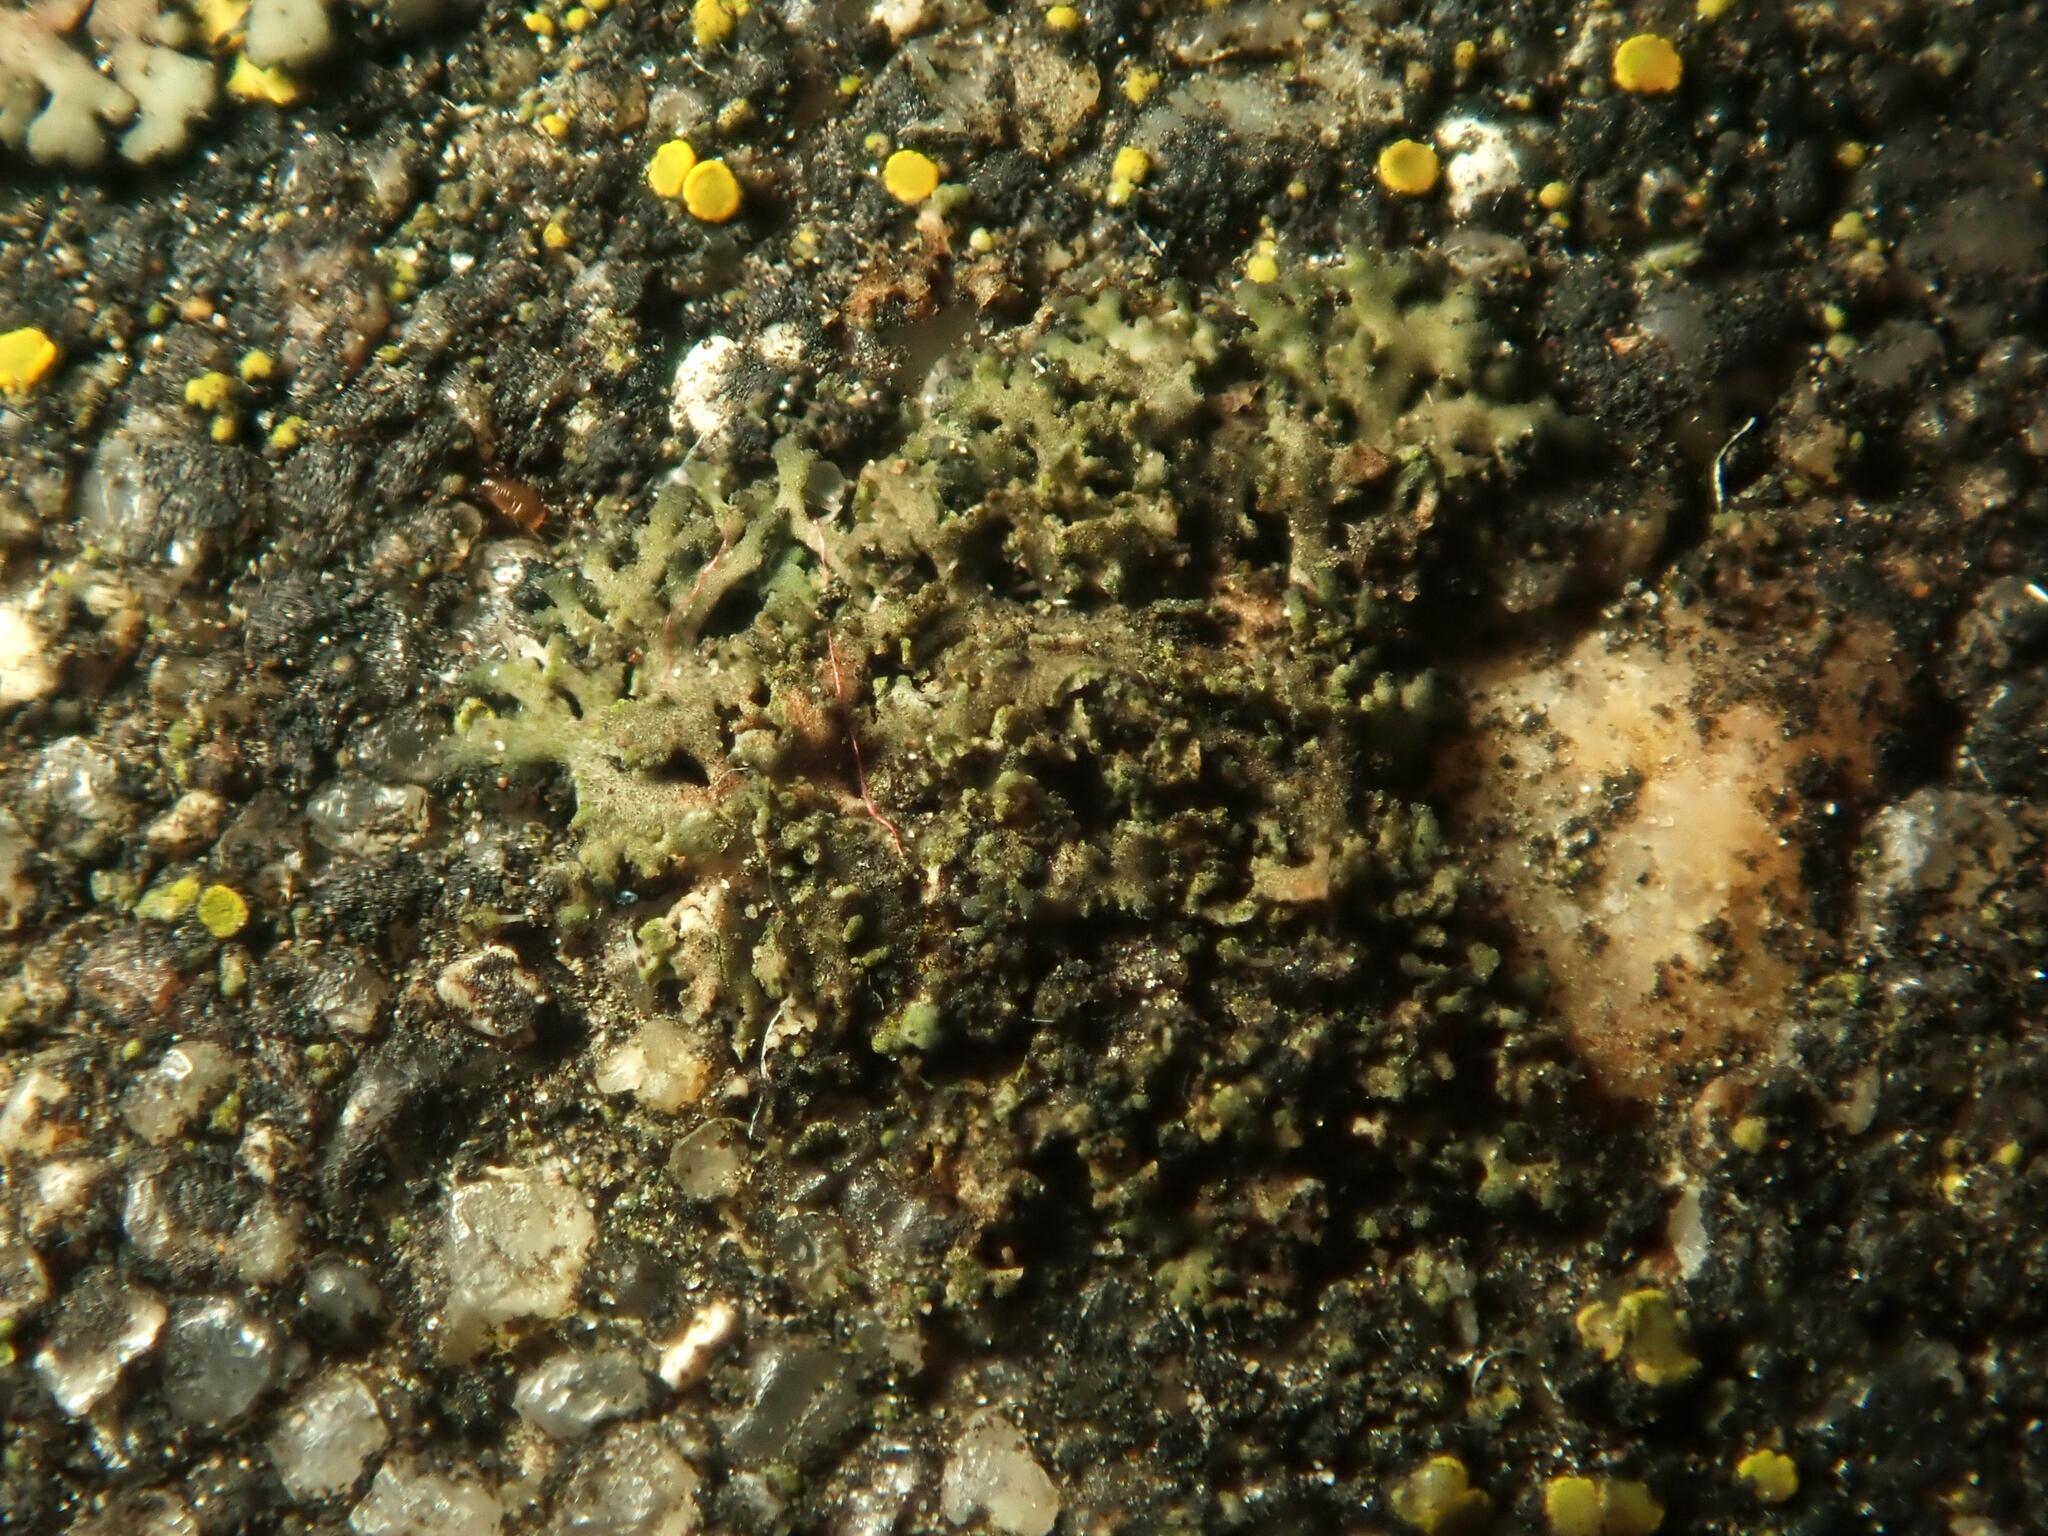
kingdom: Fungi
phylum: Ascomycota
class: Lecanoromycetes
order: Caliciales
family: Physciaceae
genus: Physciella
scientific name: Physciella nigricans
